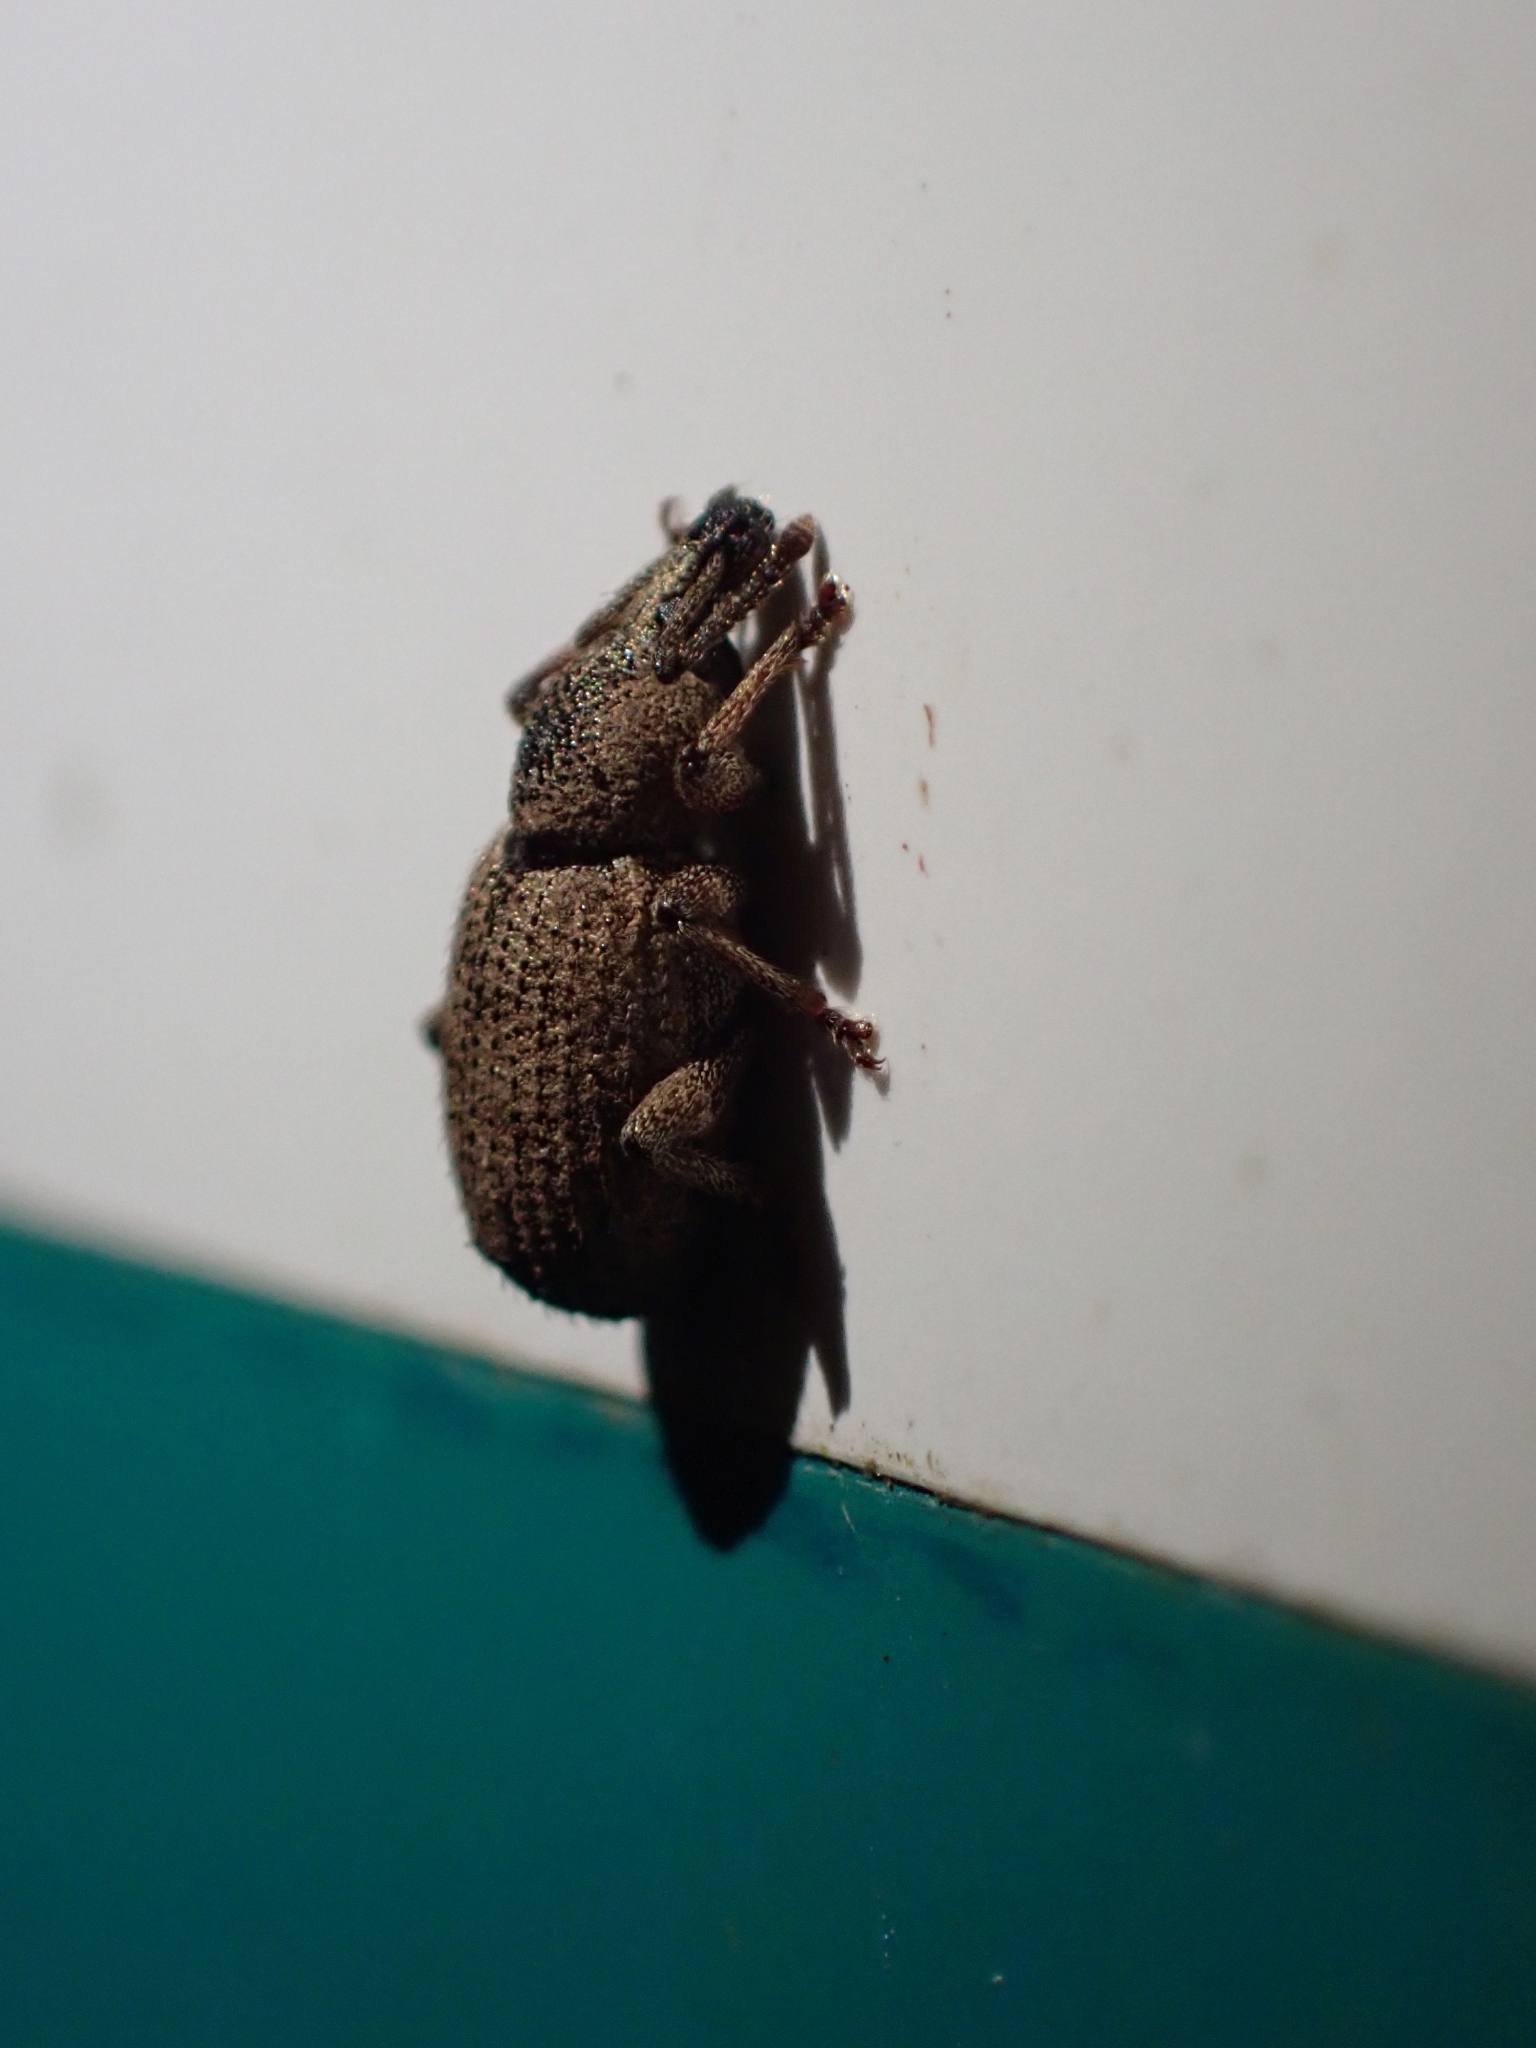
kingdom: Animalia
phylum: Arthropoda
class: Insecta
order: Coleoptera
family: Curculionidae
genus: Otiorhynchus
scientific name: Otiorhynchus singularis
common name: Clay-coloured weevil
